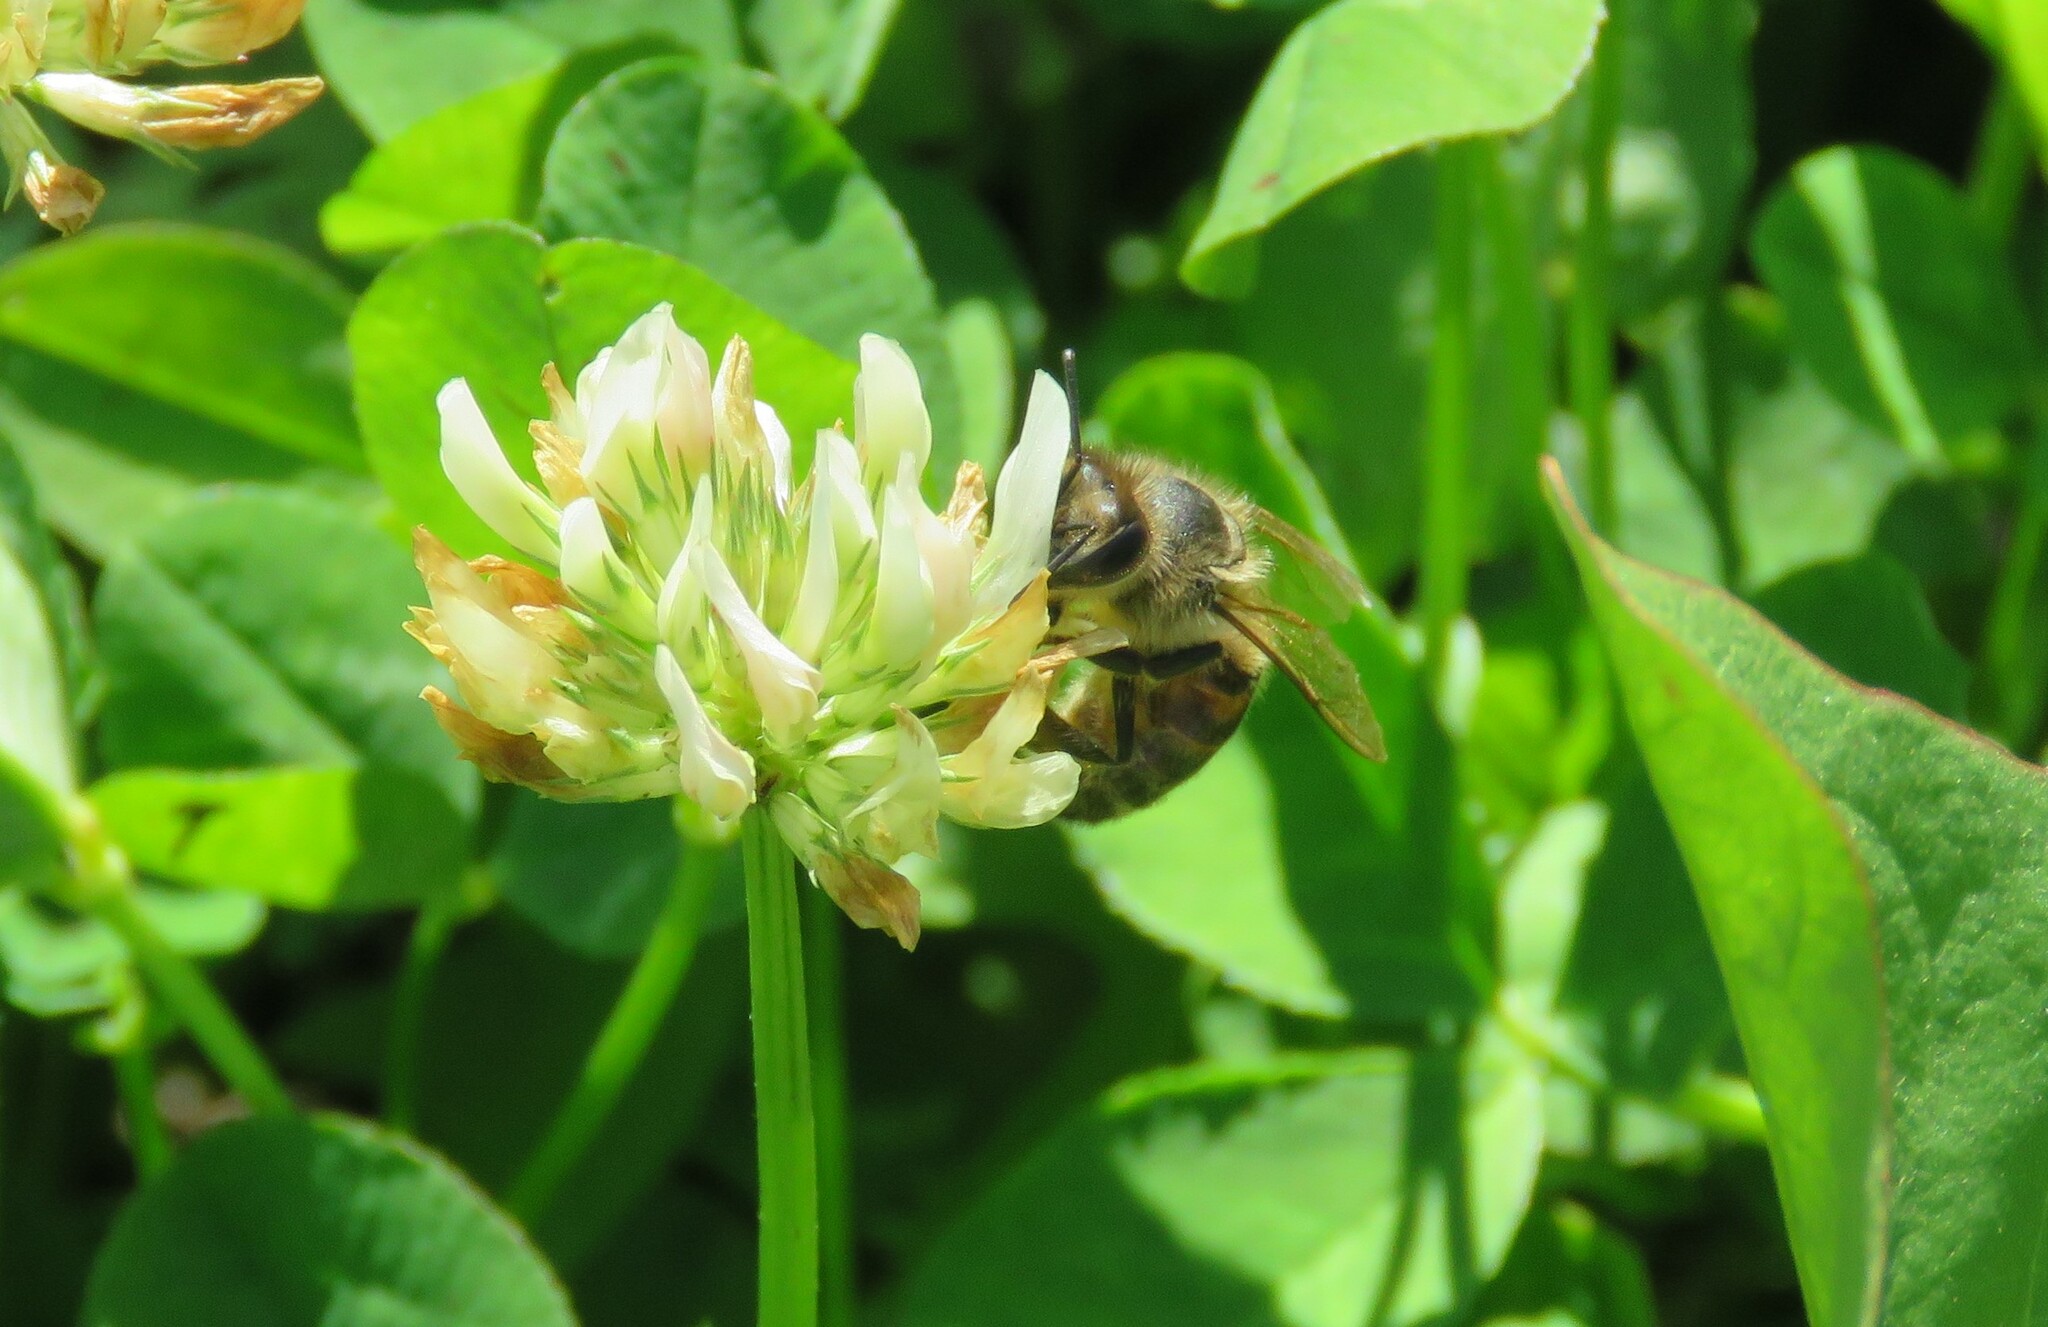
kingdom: Animalia
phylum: Arthropoda
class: Insecta
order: Hymenoptera
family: Apidae
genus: Apis
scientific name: Apis mellifera
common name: Honey bee
